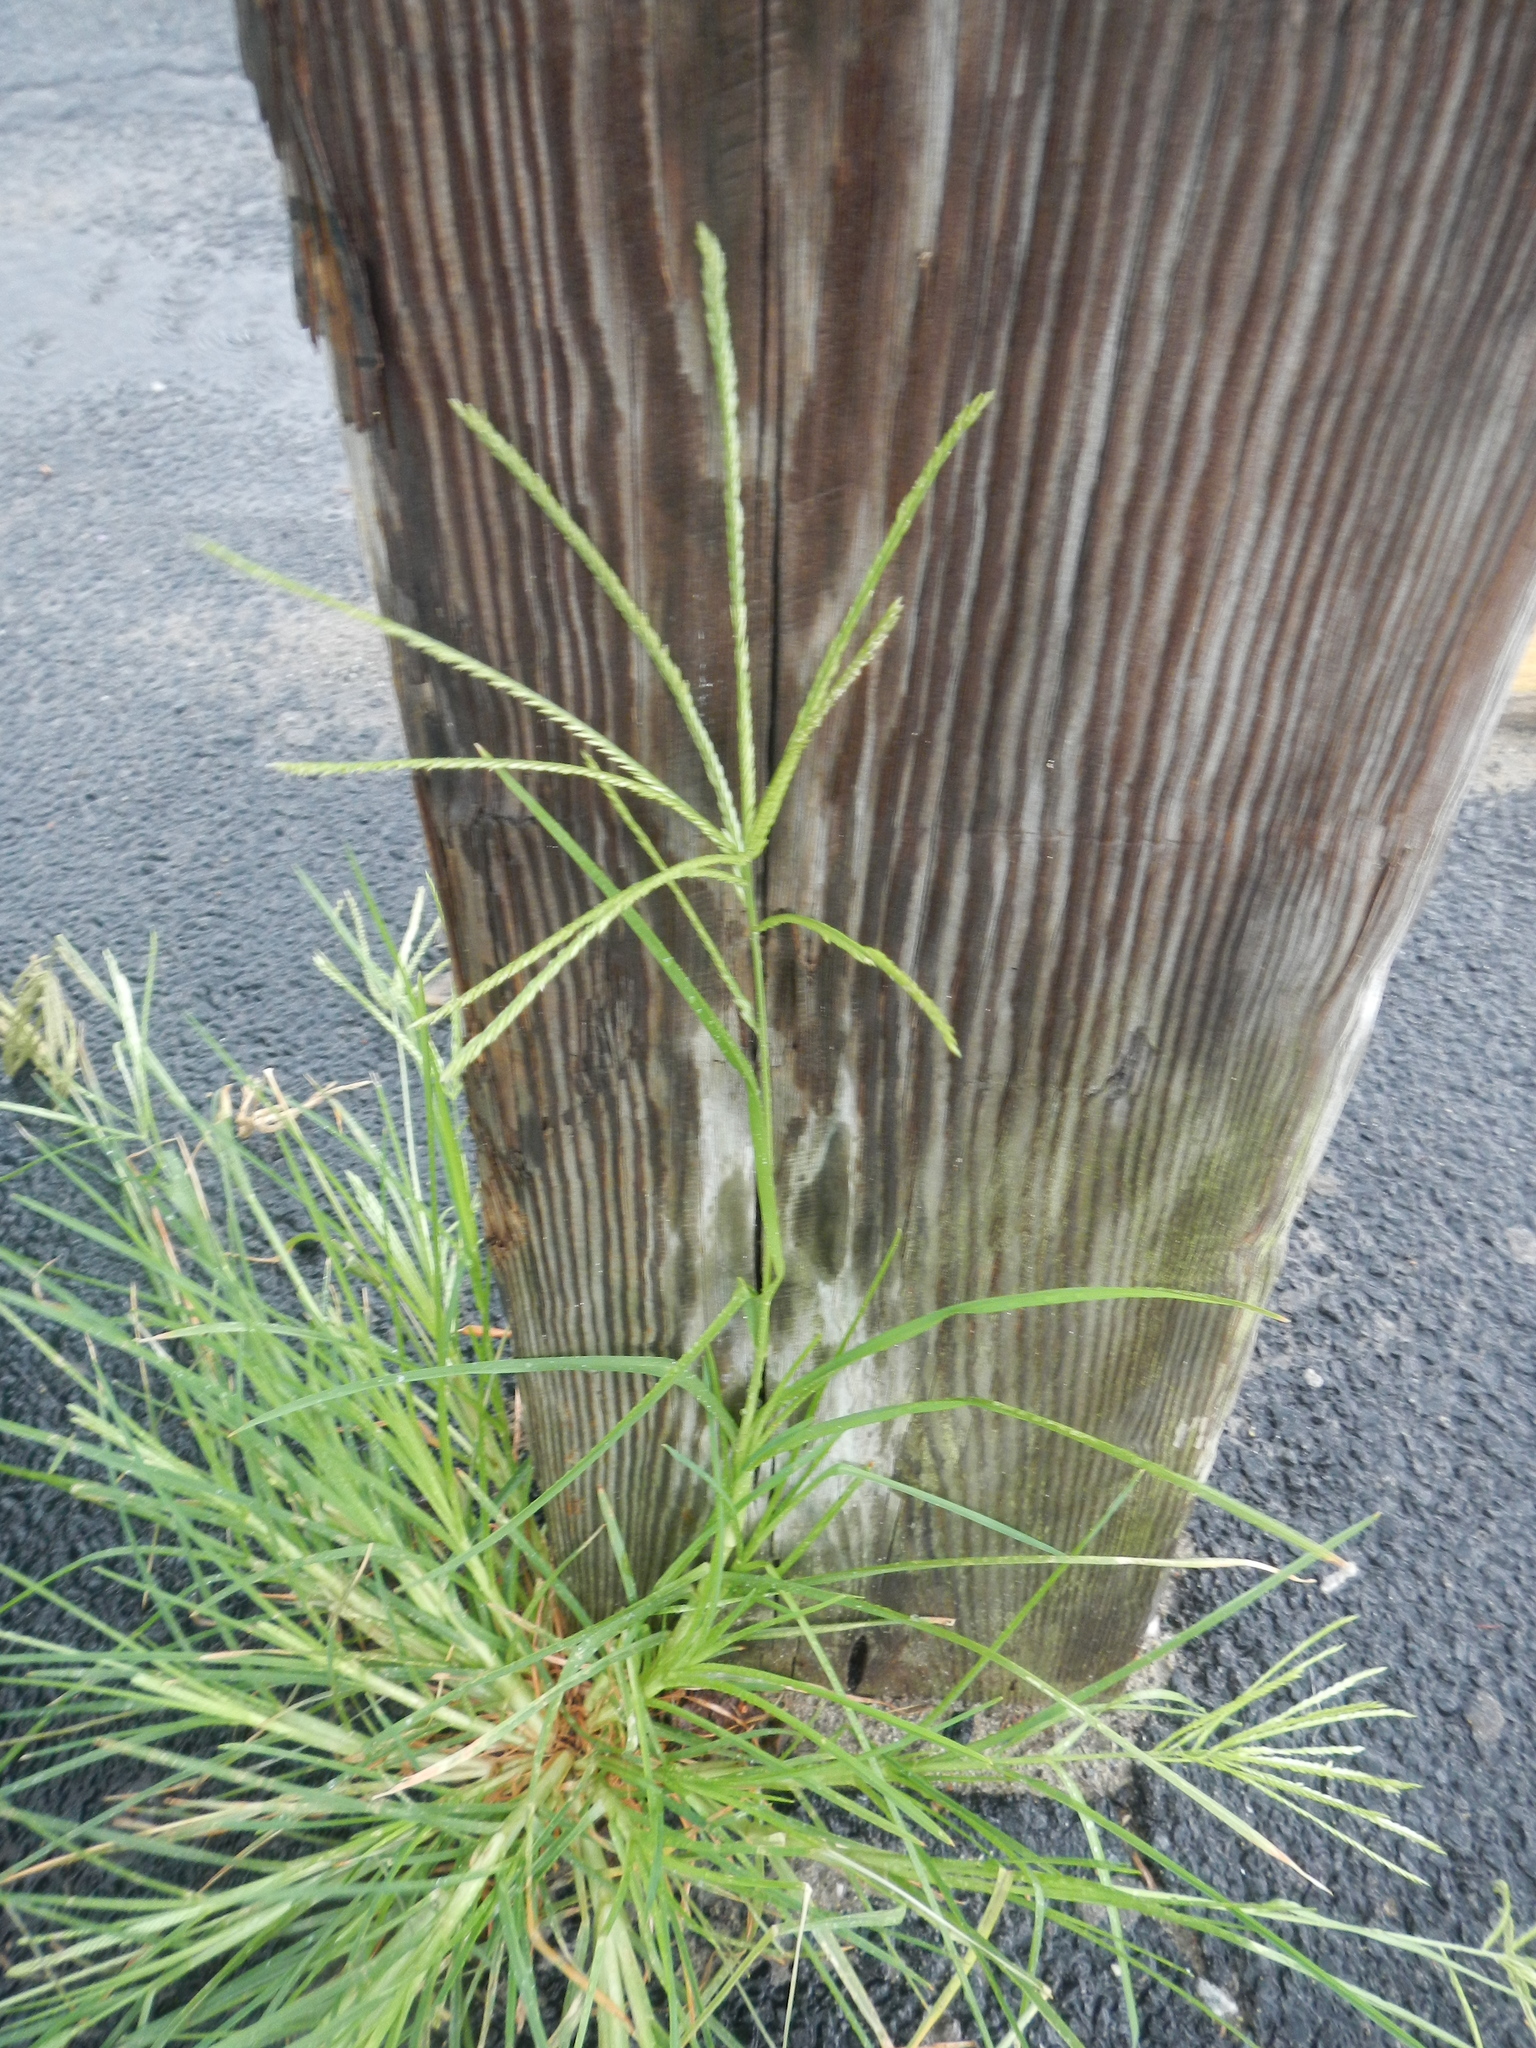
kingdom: Plantae
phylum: Tracheophyta
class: Liliopsida
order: Poales
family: Poaceae
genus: Eleusine
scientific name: Eleusine indica
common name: Yard-grass
